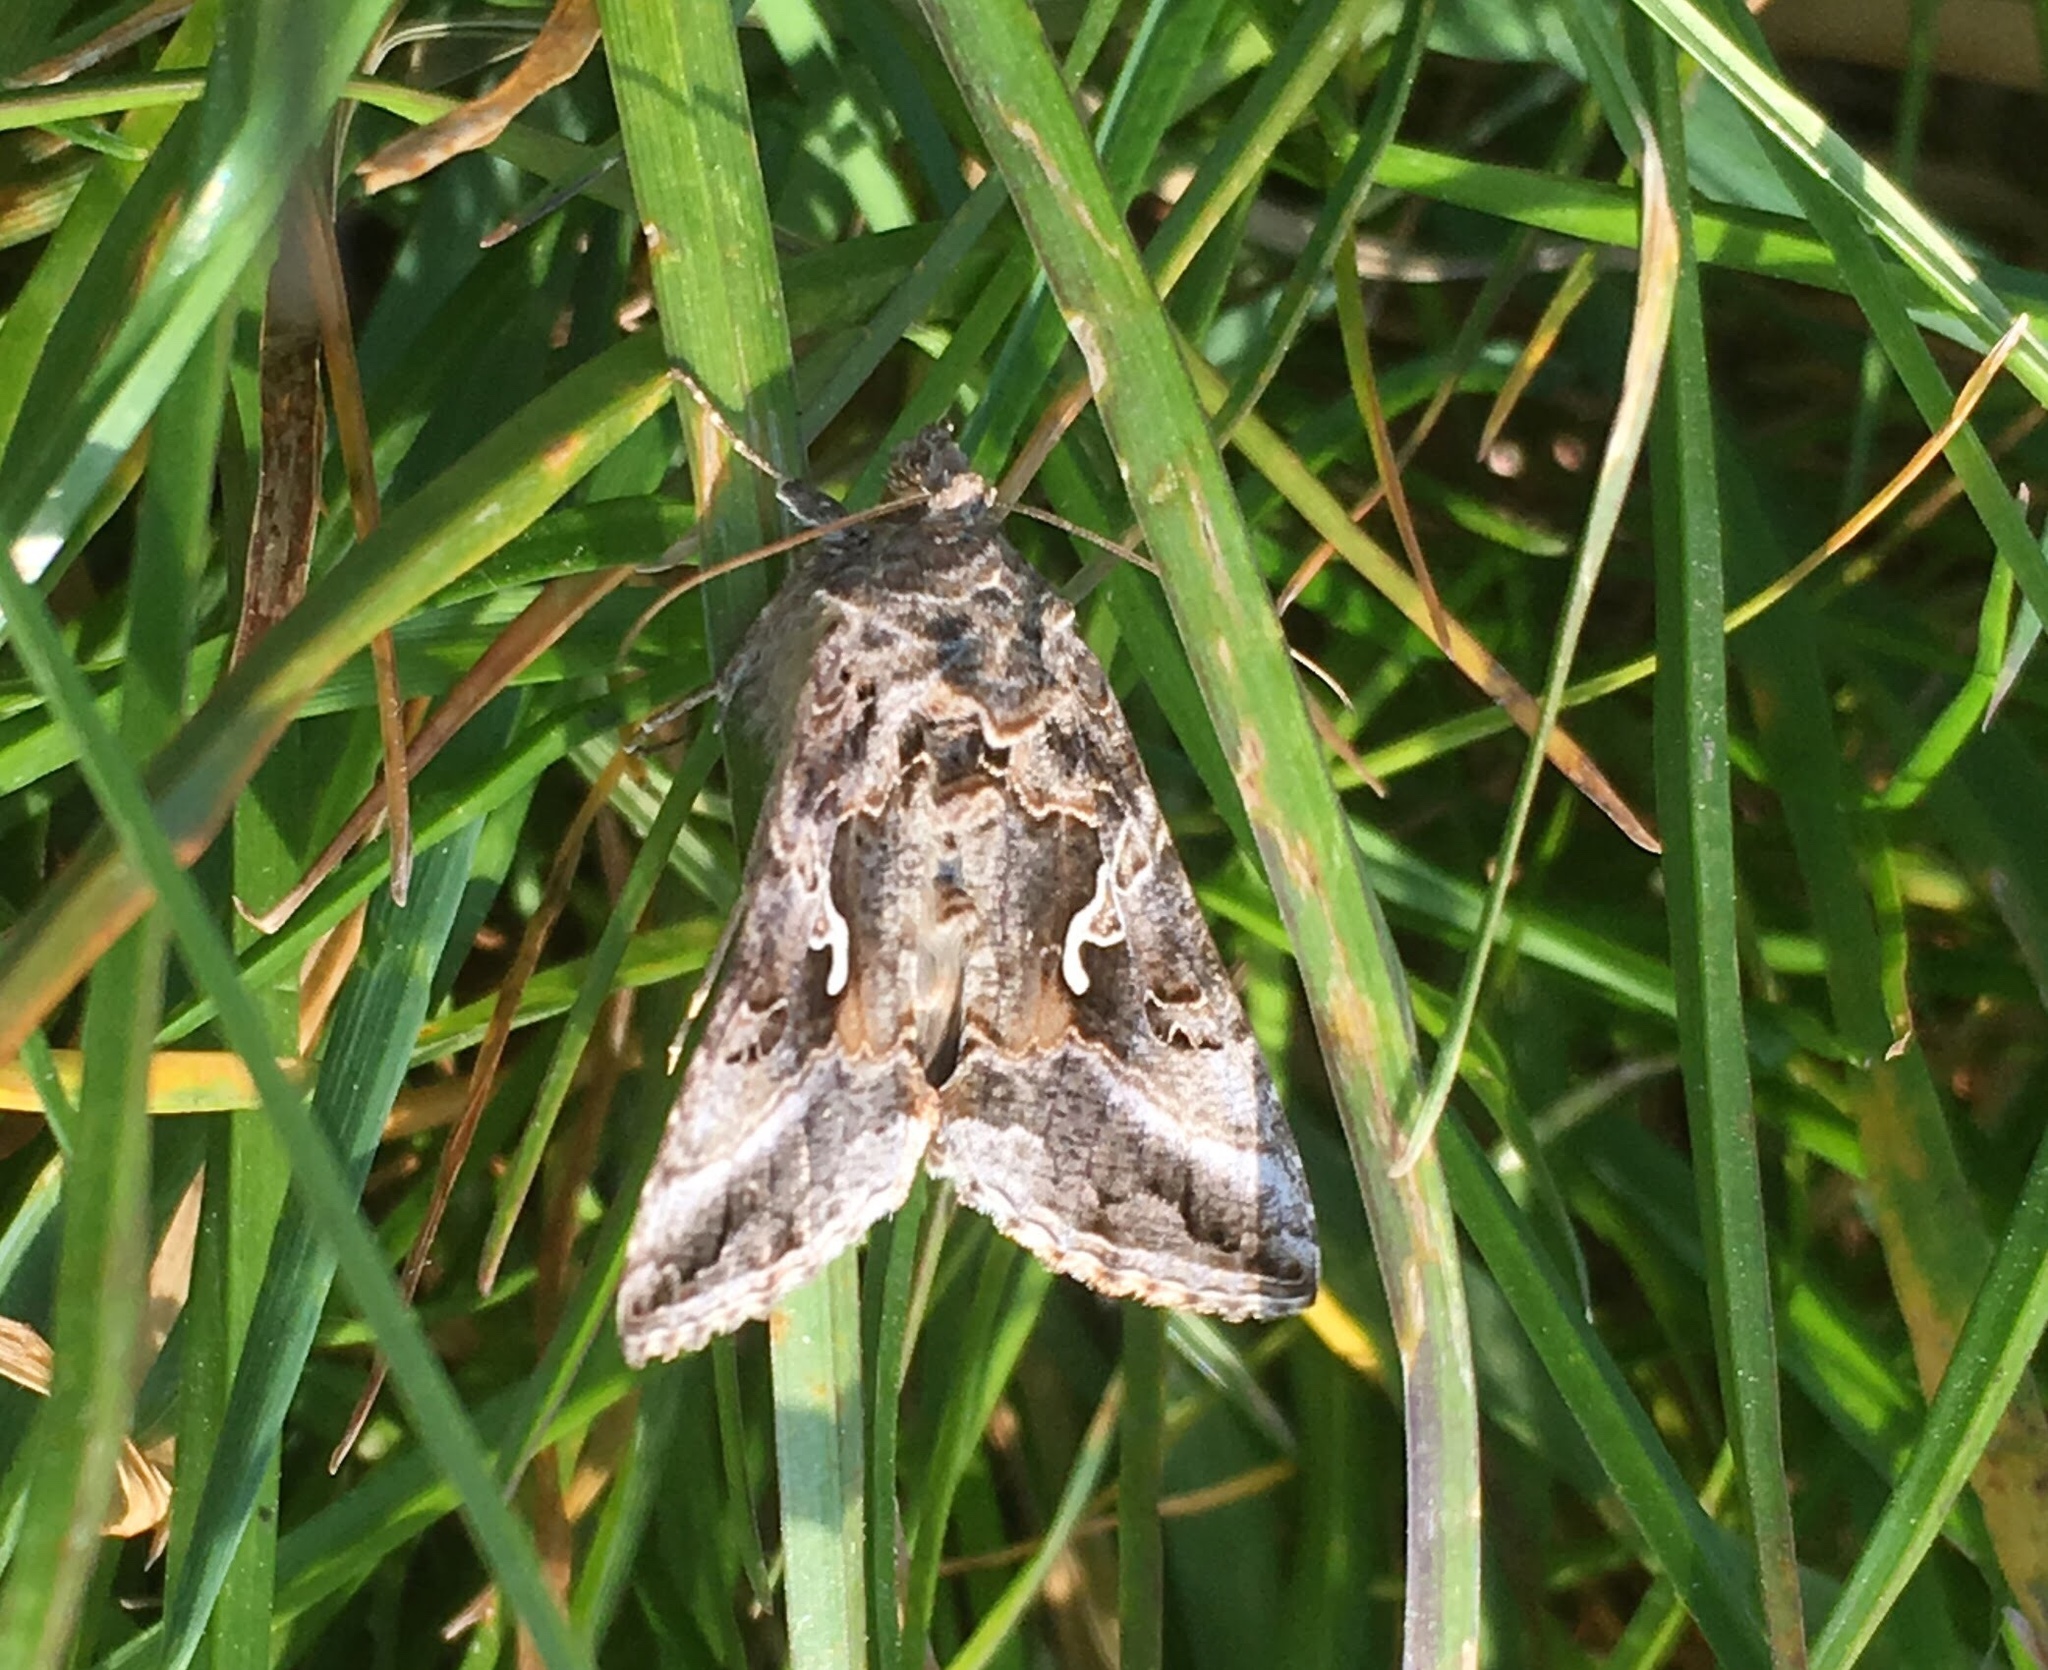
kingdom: Animalia
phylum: Arthropoda
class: Insecta
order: Lepidoptera
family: Noctuidae
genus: Autographa
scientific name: Autographa gamma
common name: Silver y
